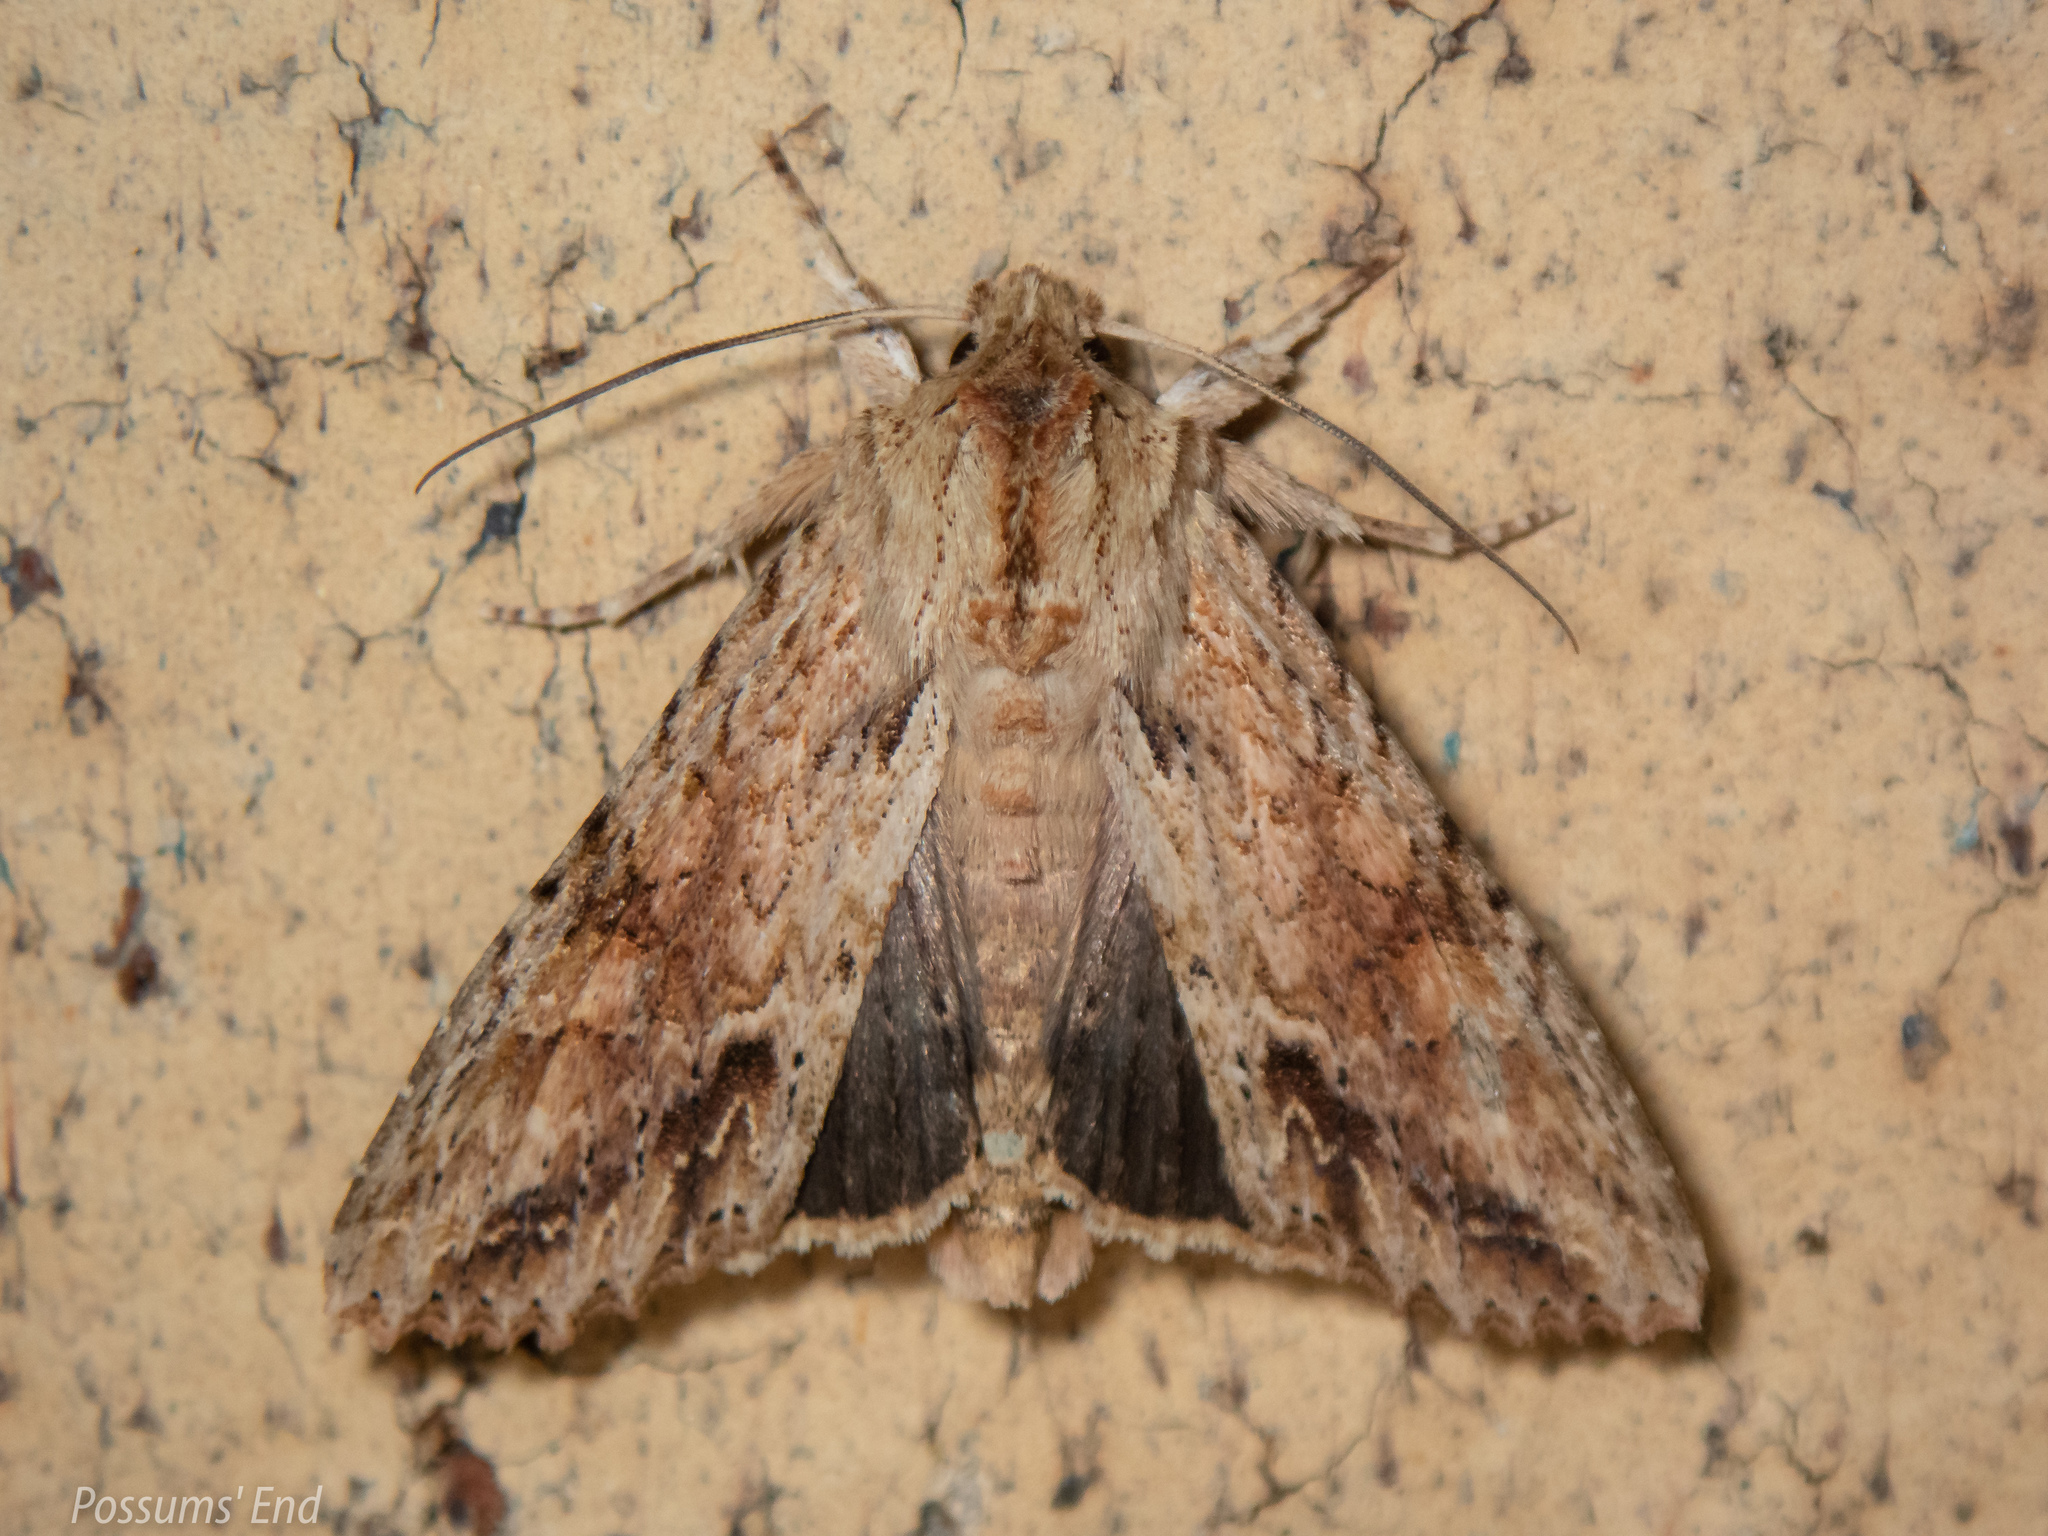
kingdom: Animalia
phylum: Arthropoda
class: Insecta
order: Lepidoptera
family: Noctuidae
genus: Ichneutica
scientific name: Ichneutica mollis
